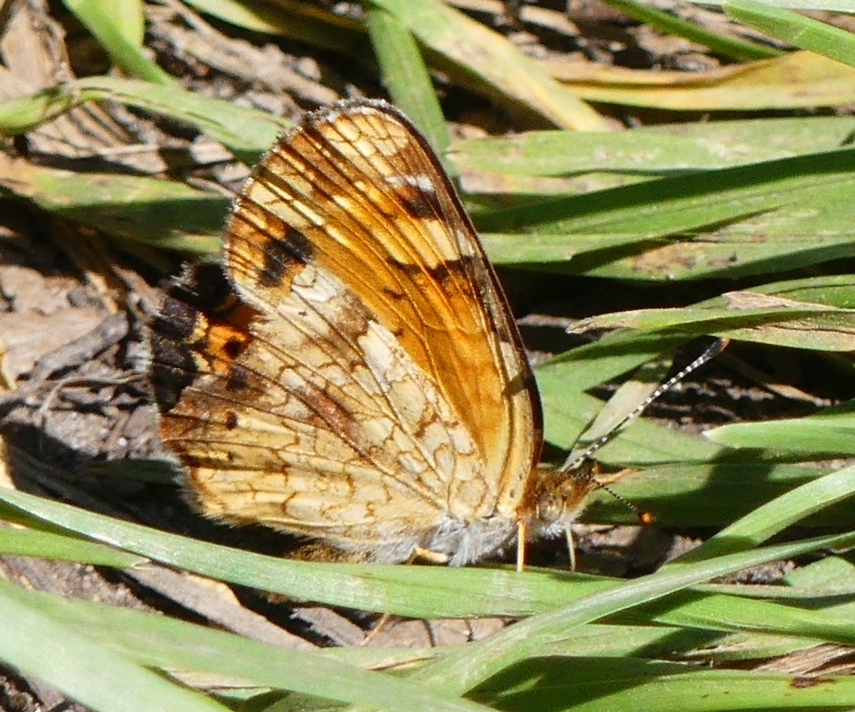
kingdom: Animalia
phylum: Arthropoda
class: Insecta
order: Lepidoptera
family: Nymphalidae
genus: Phyciodes
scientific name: Phyciodes tharos
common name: Pearl crescent
